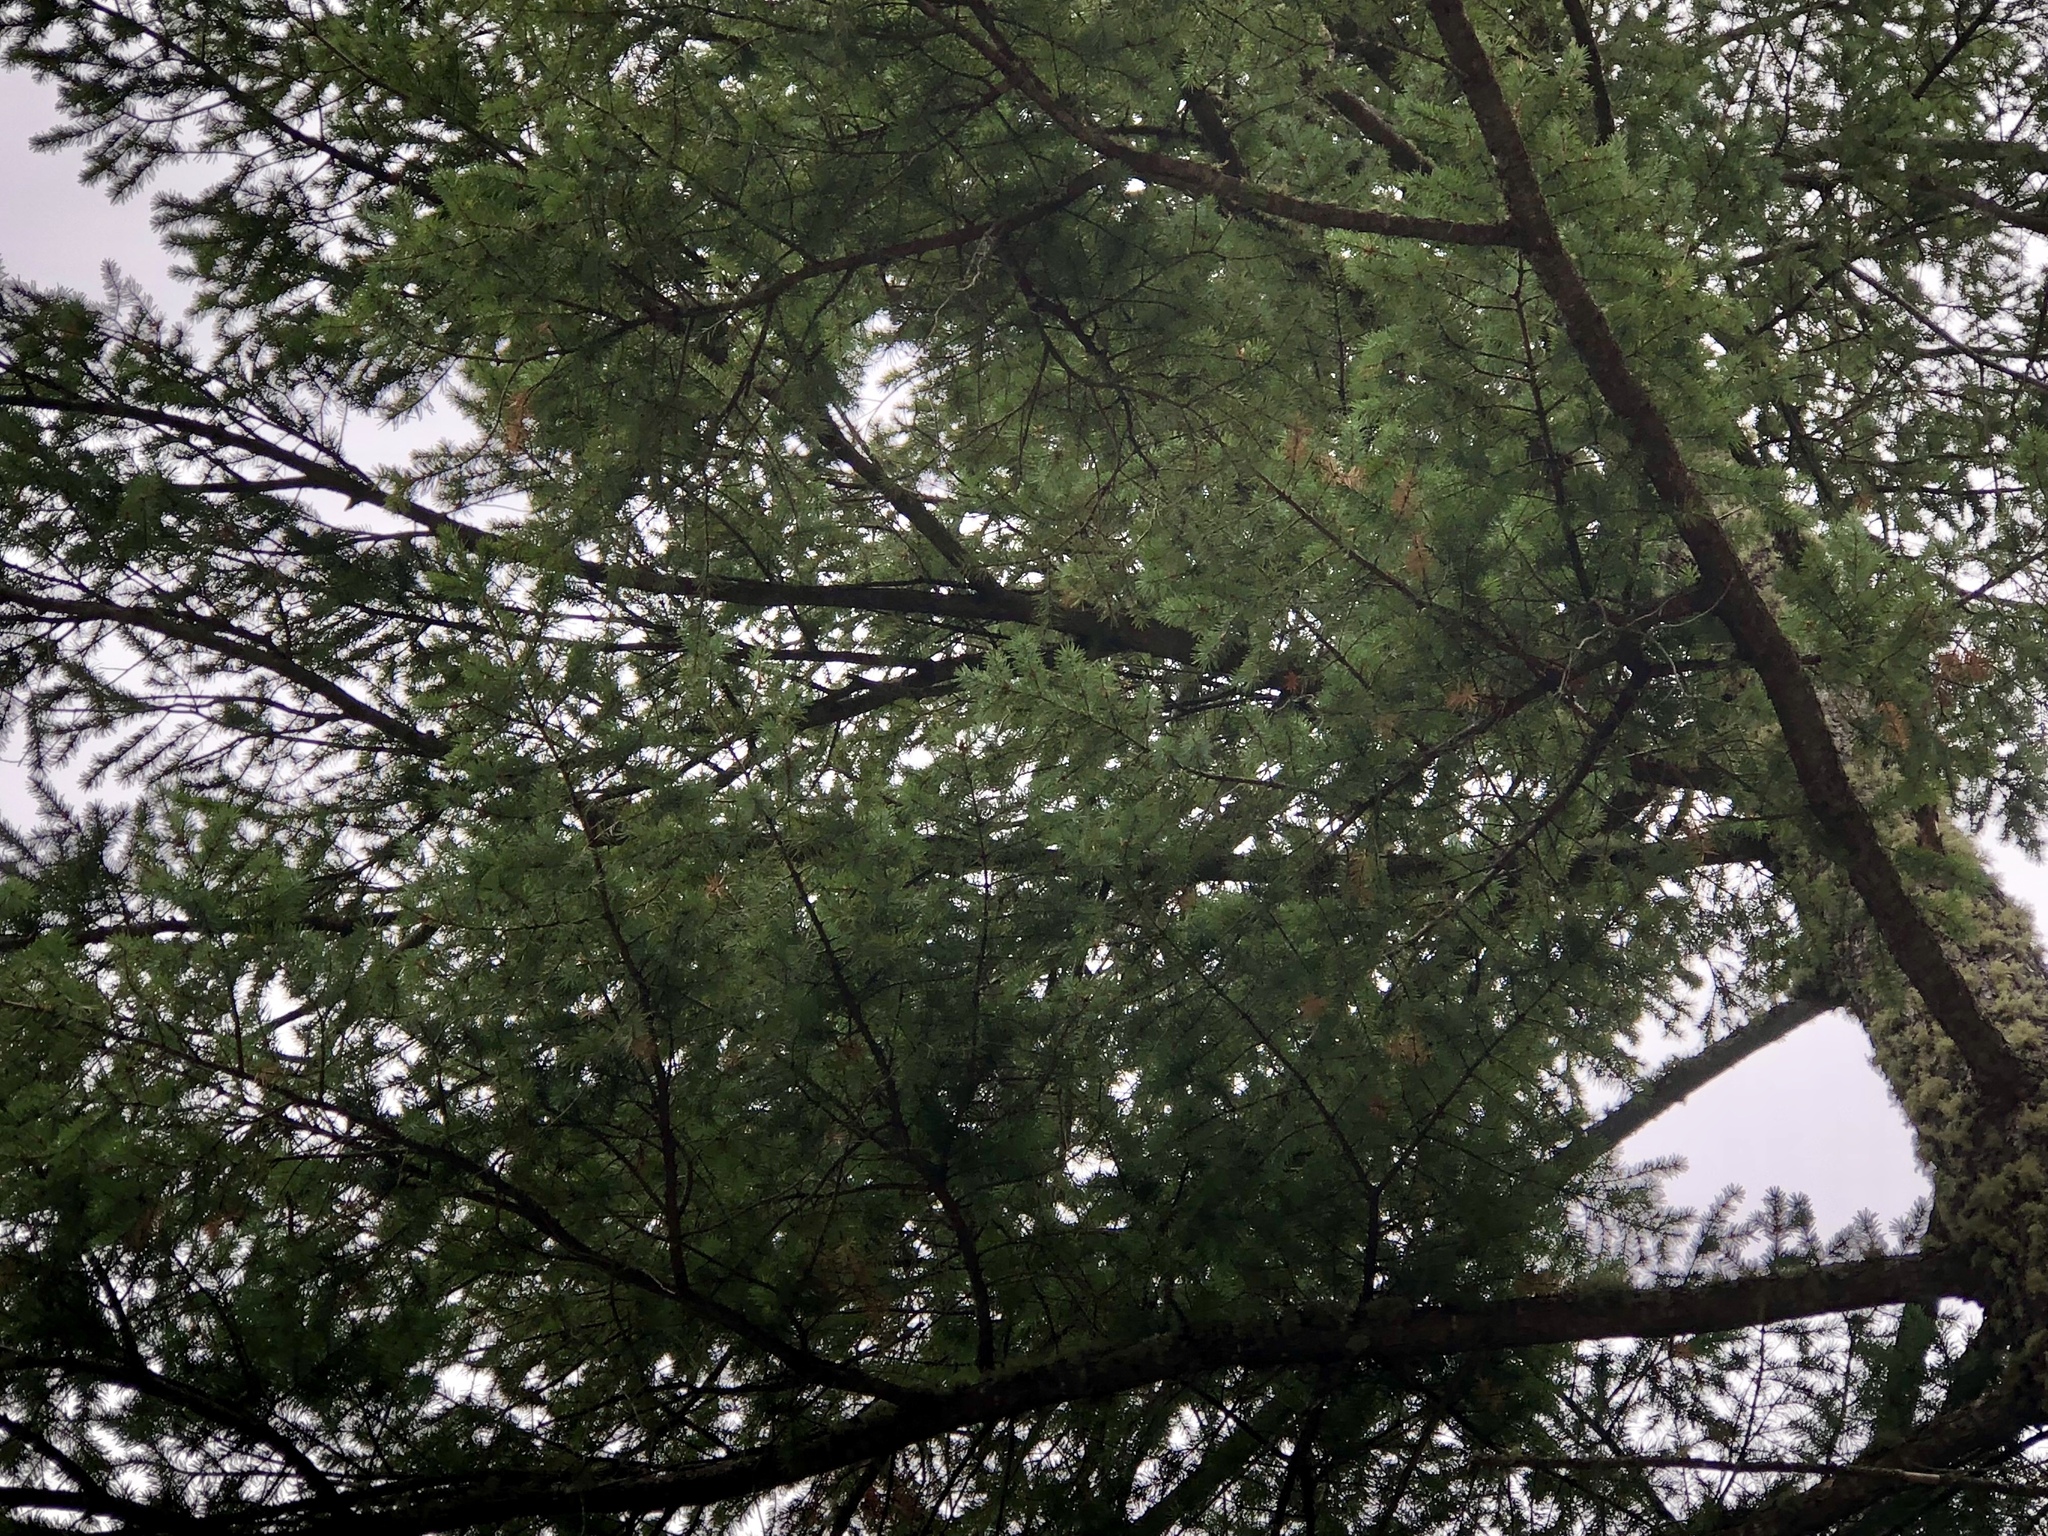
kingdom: Plantae
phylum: Tracheophyta
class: Pinopsida
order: Pinales
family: Pinaceae
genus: Pseudotsuga
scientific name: Pseudotsuga menziesii
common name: Douglas fir
